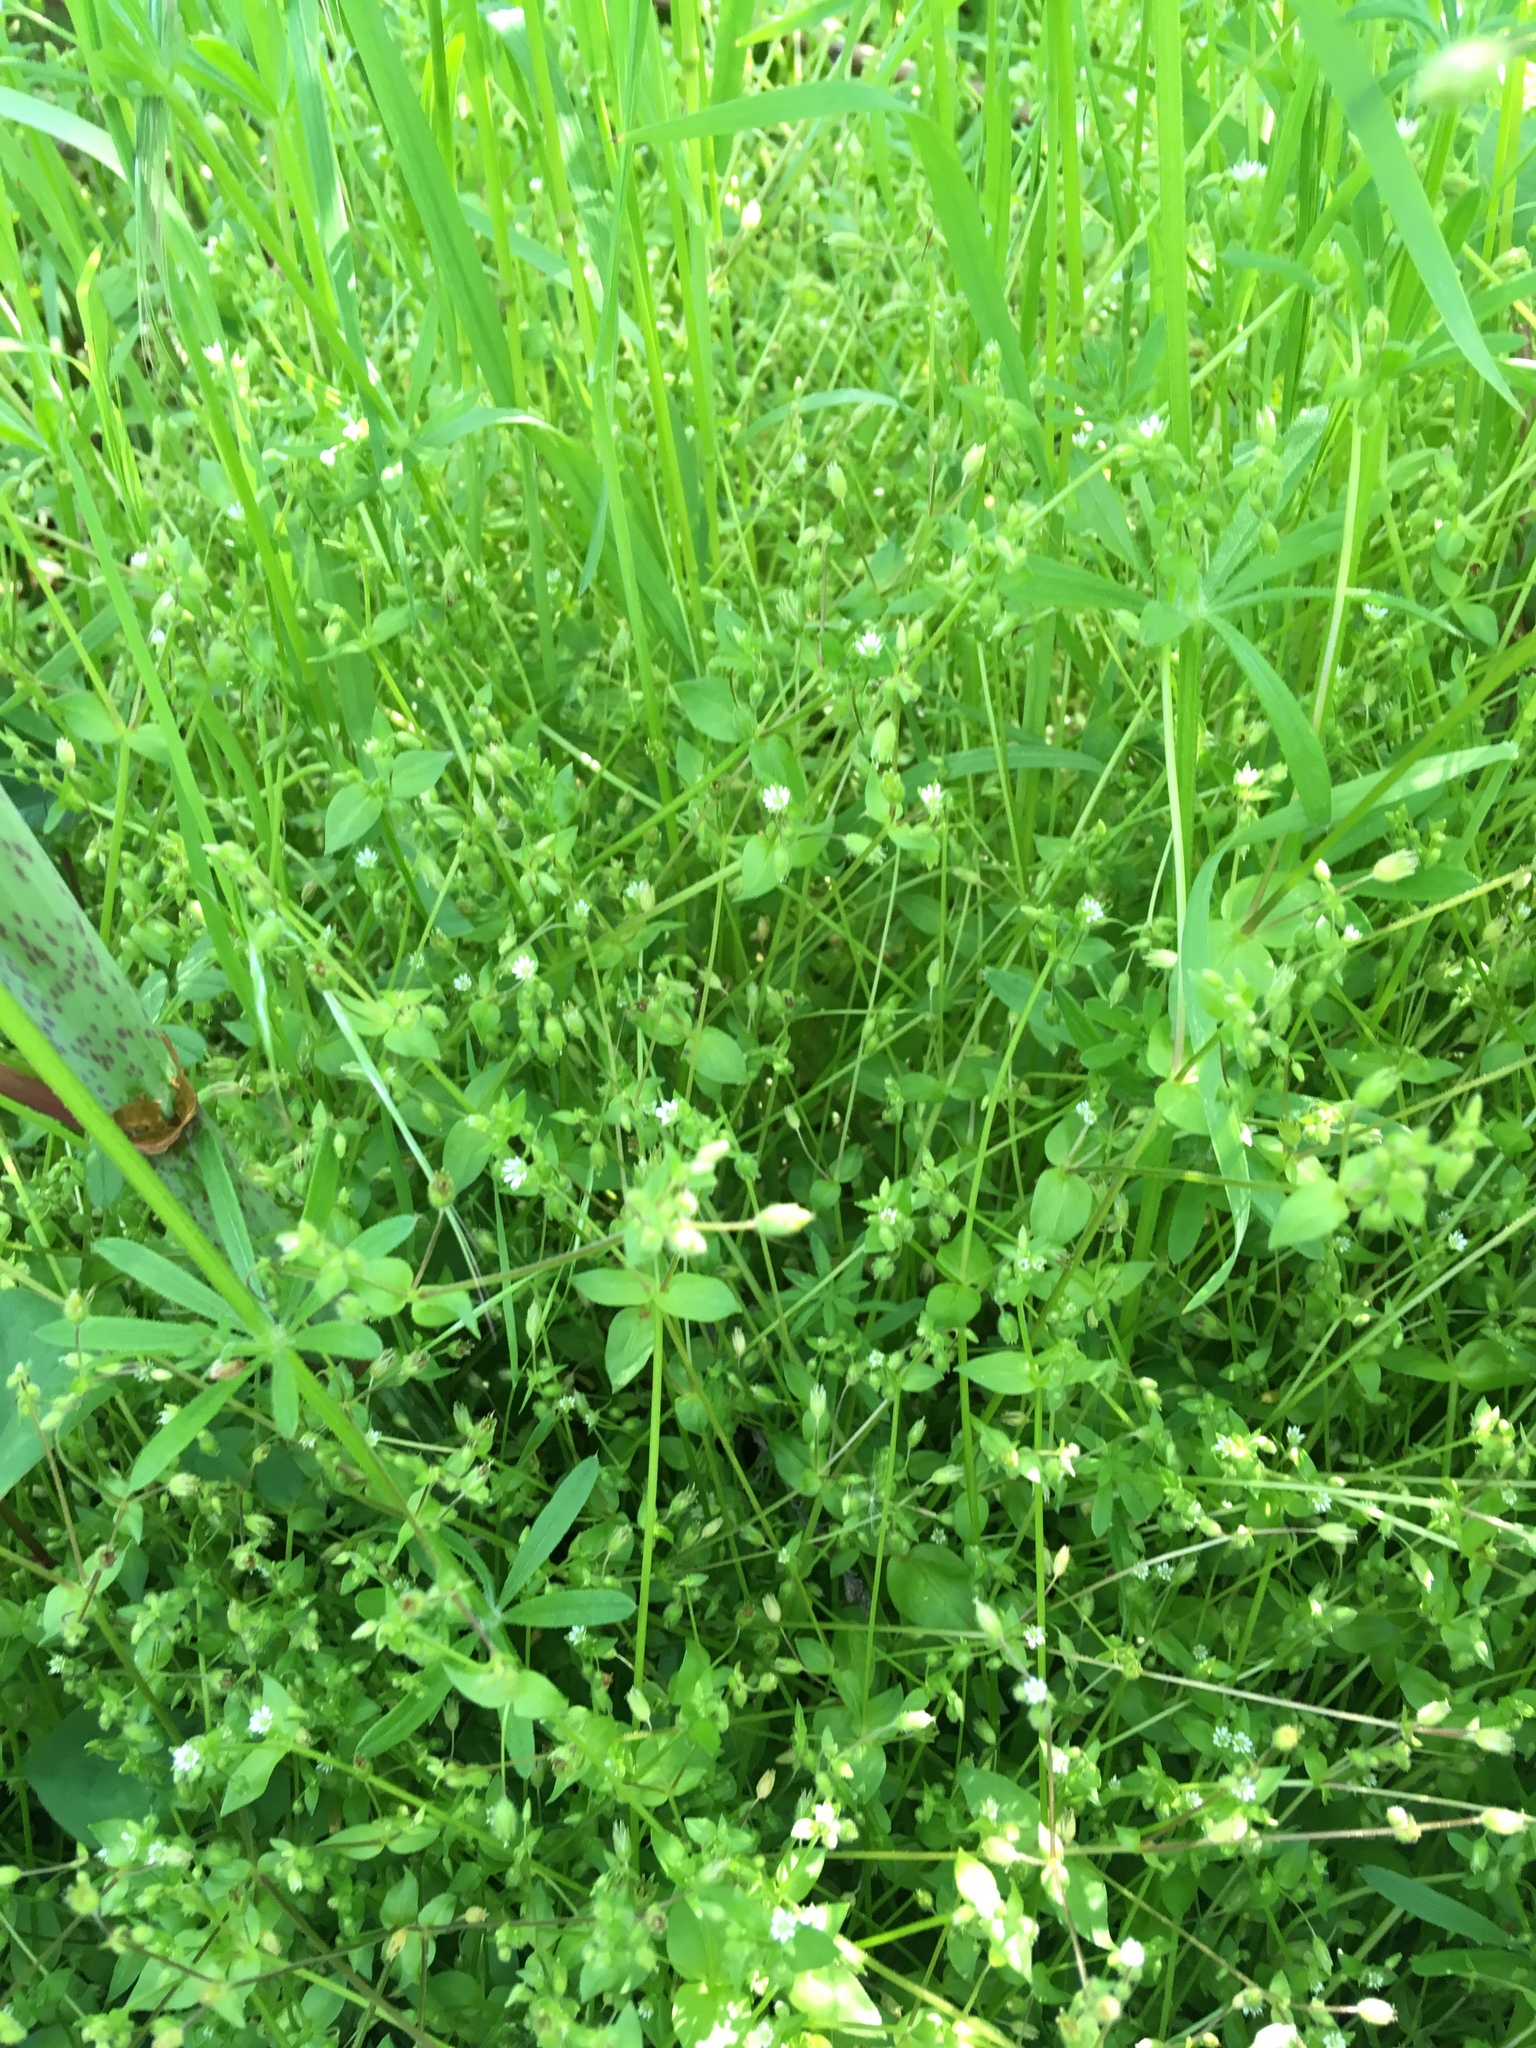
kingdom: Plantae
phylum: Tracheophyta
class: Magnoliopsida
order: Caryophyllales
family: Caryophyllaceae
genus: Stellaria
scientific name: Stellaria media
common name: Common chickweed
